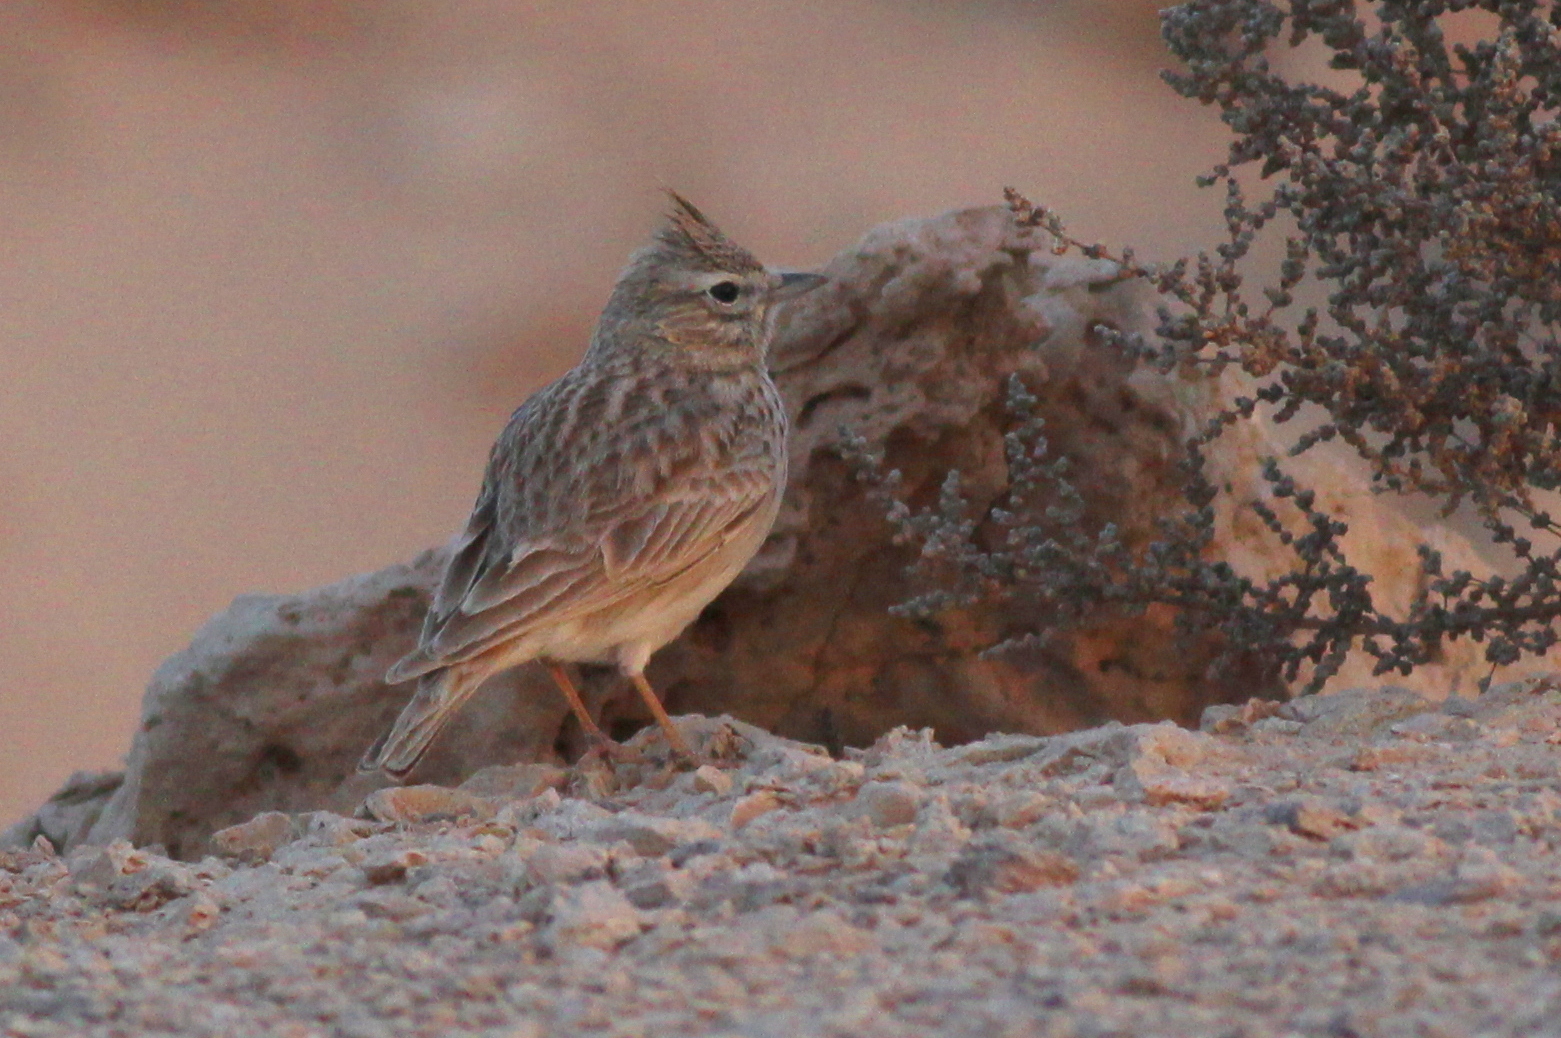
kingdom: Animalia
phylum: Chordata
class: Aves
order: Passeriformes
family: Alaudidae
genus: Galerida
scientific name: Galerida theklae
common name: Thekla lark
